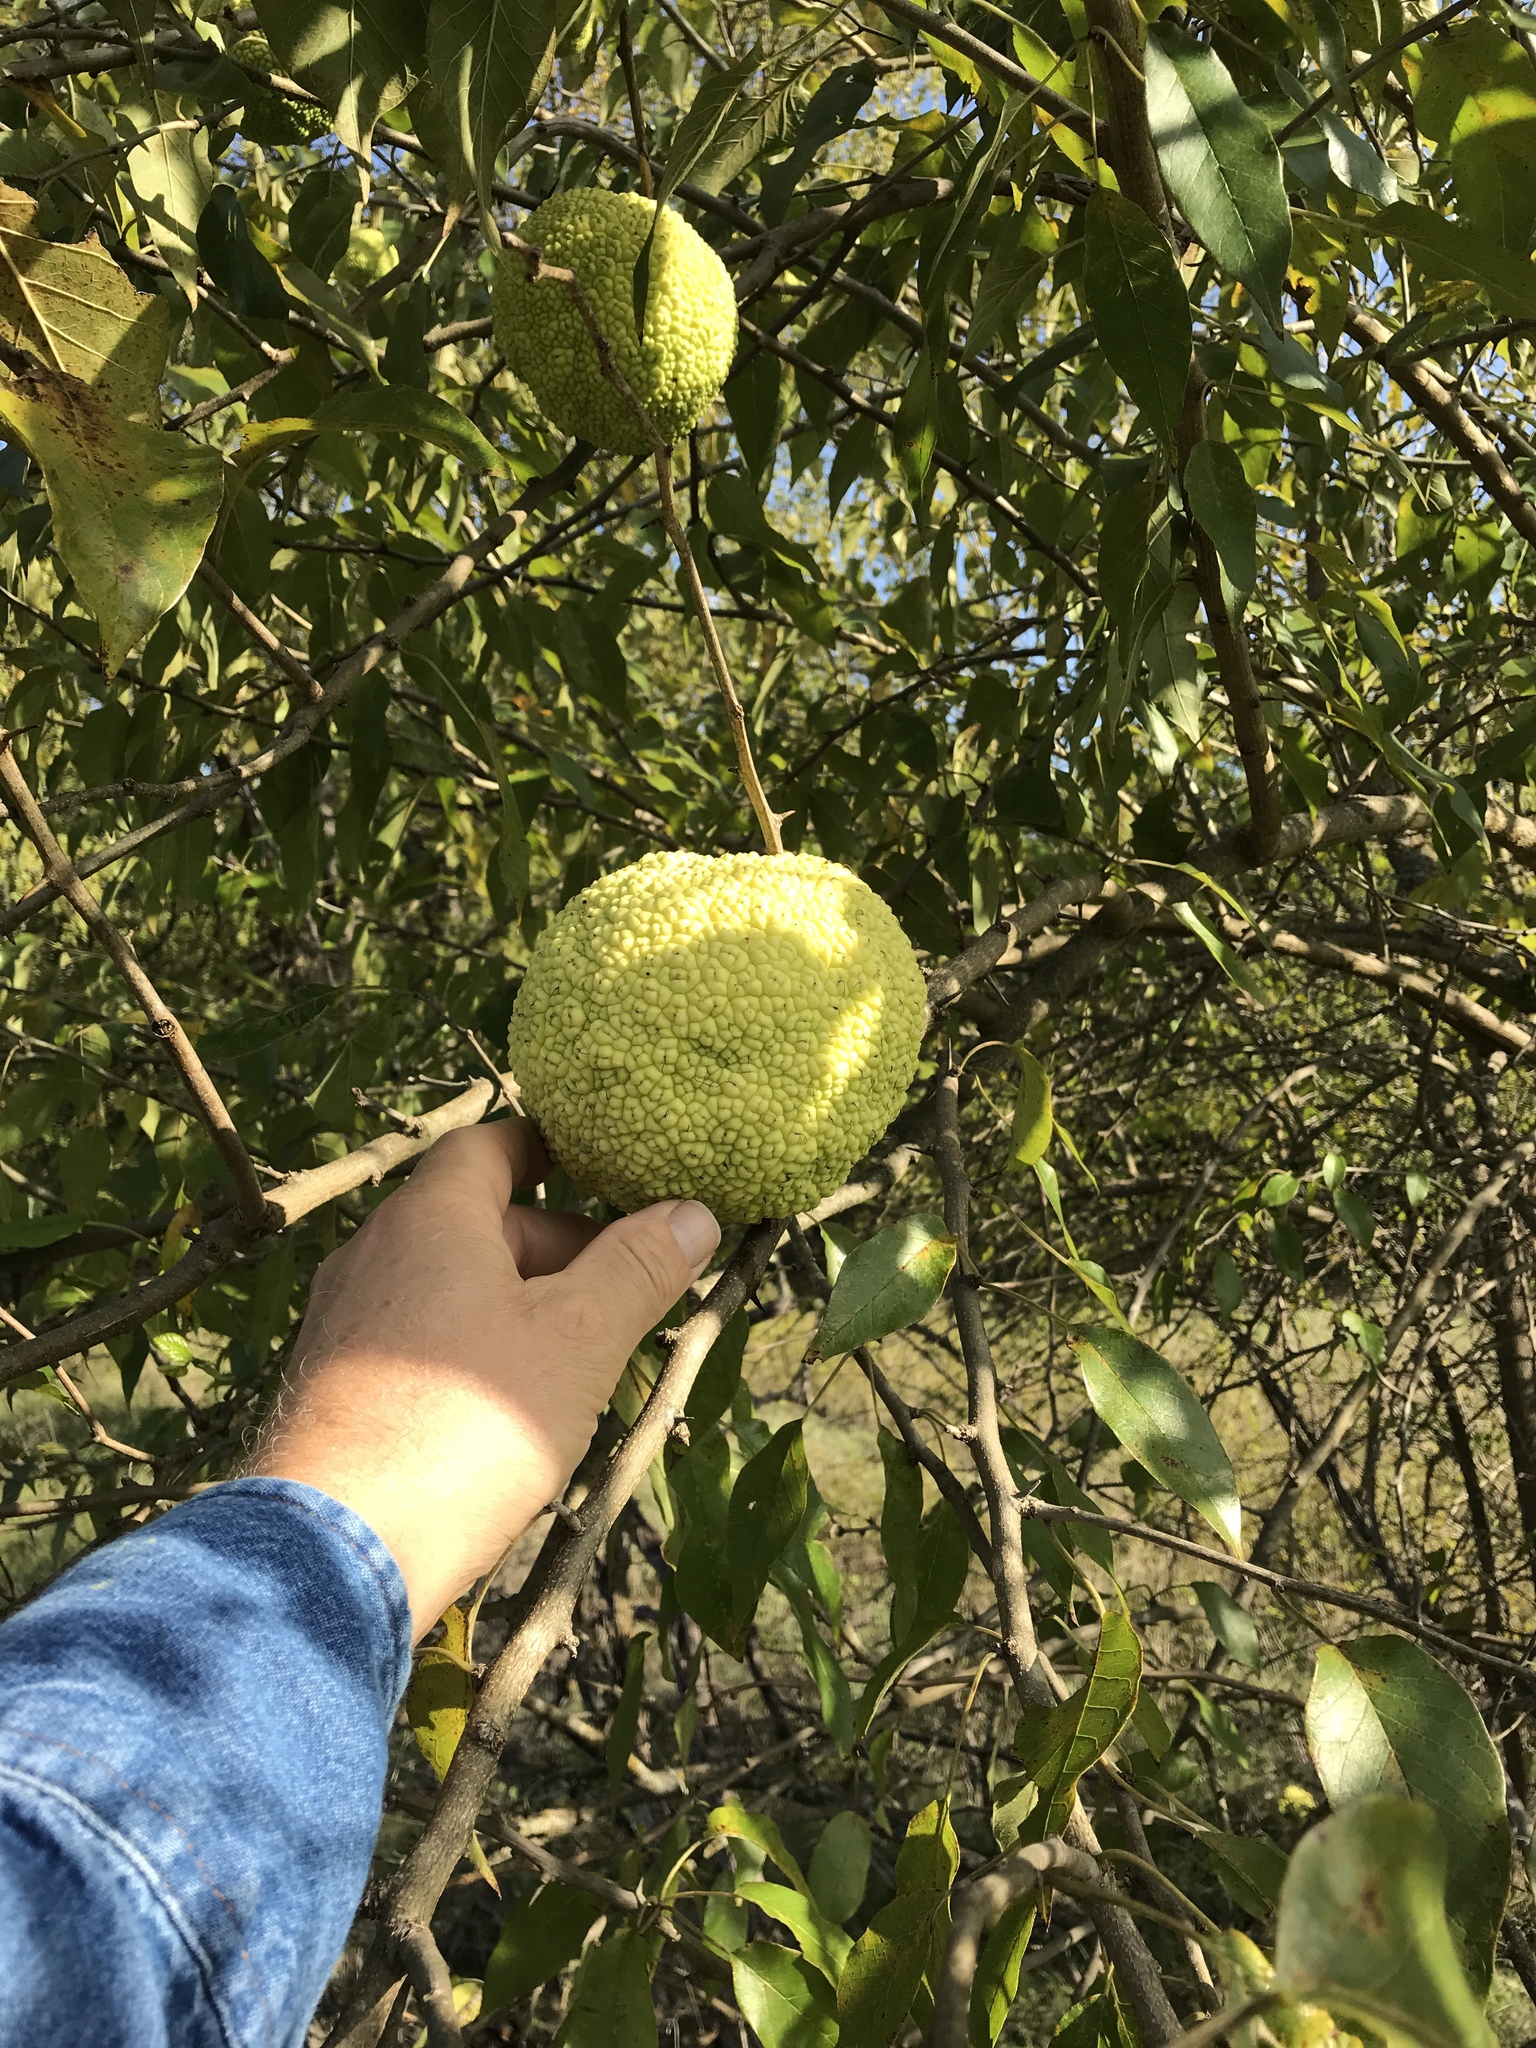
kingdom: Plantae
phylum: Tracheophyta
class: Magnoliopsida
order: Rosales
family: Moraceae
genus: Maclura
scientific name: Maclura pomifera
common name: Osage-orange
